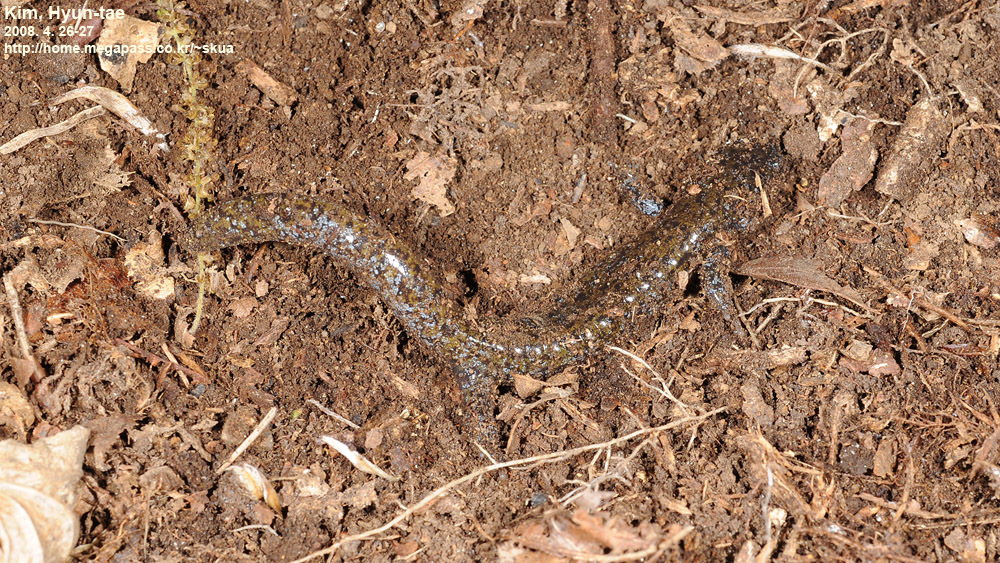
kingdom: Animalia
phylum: Chordata
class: Amphibia
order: Caudata
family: Hynobiidae
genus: Hynobius
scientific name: Hynobius leechii
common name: Gensan salamander
